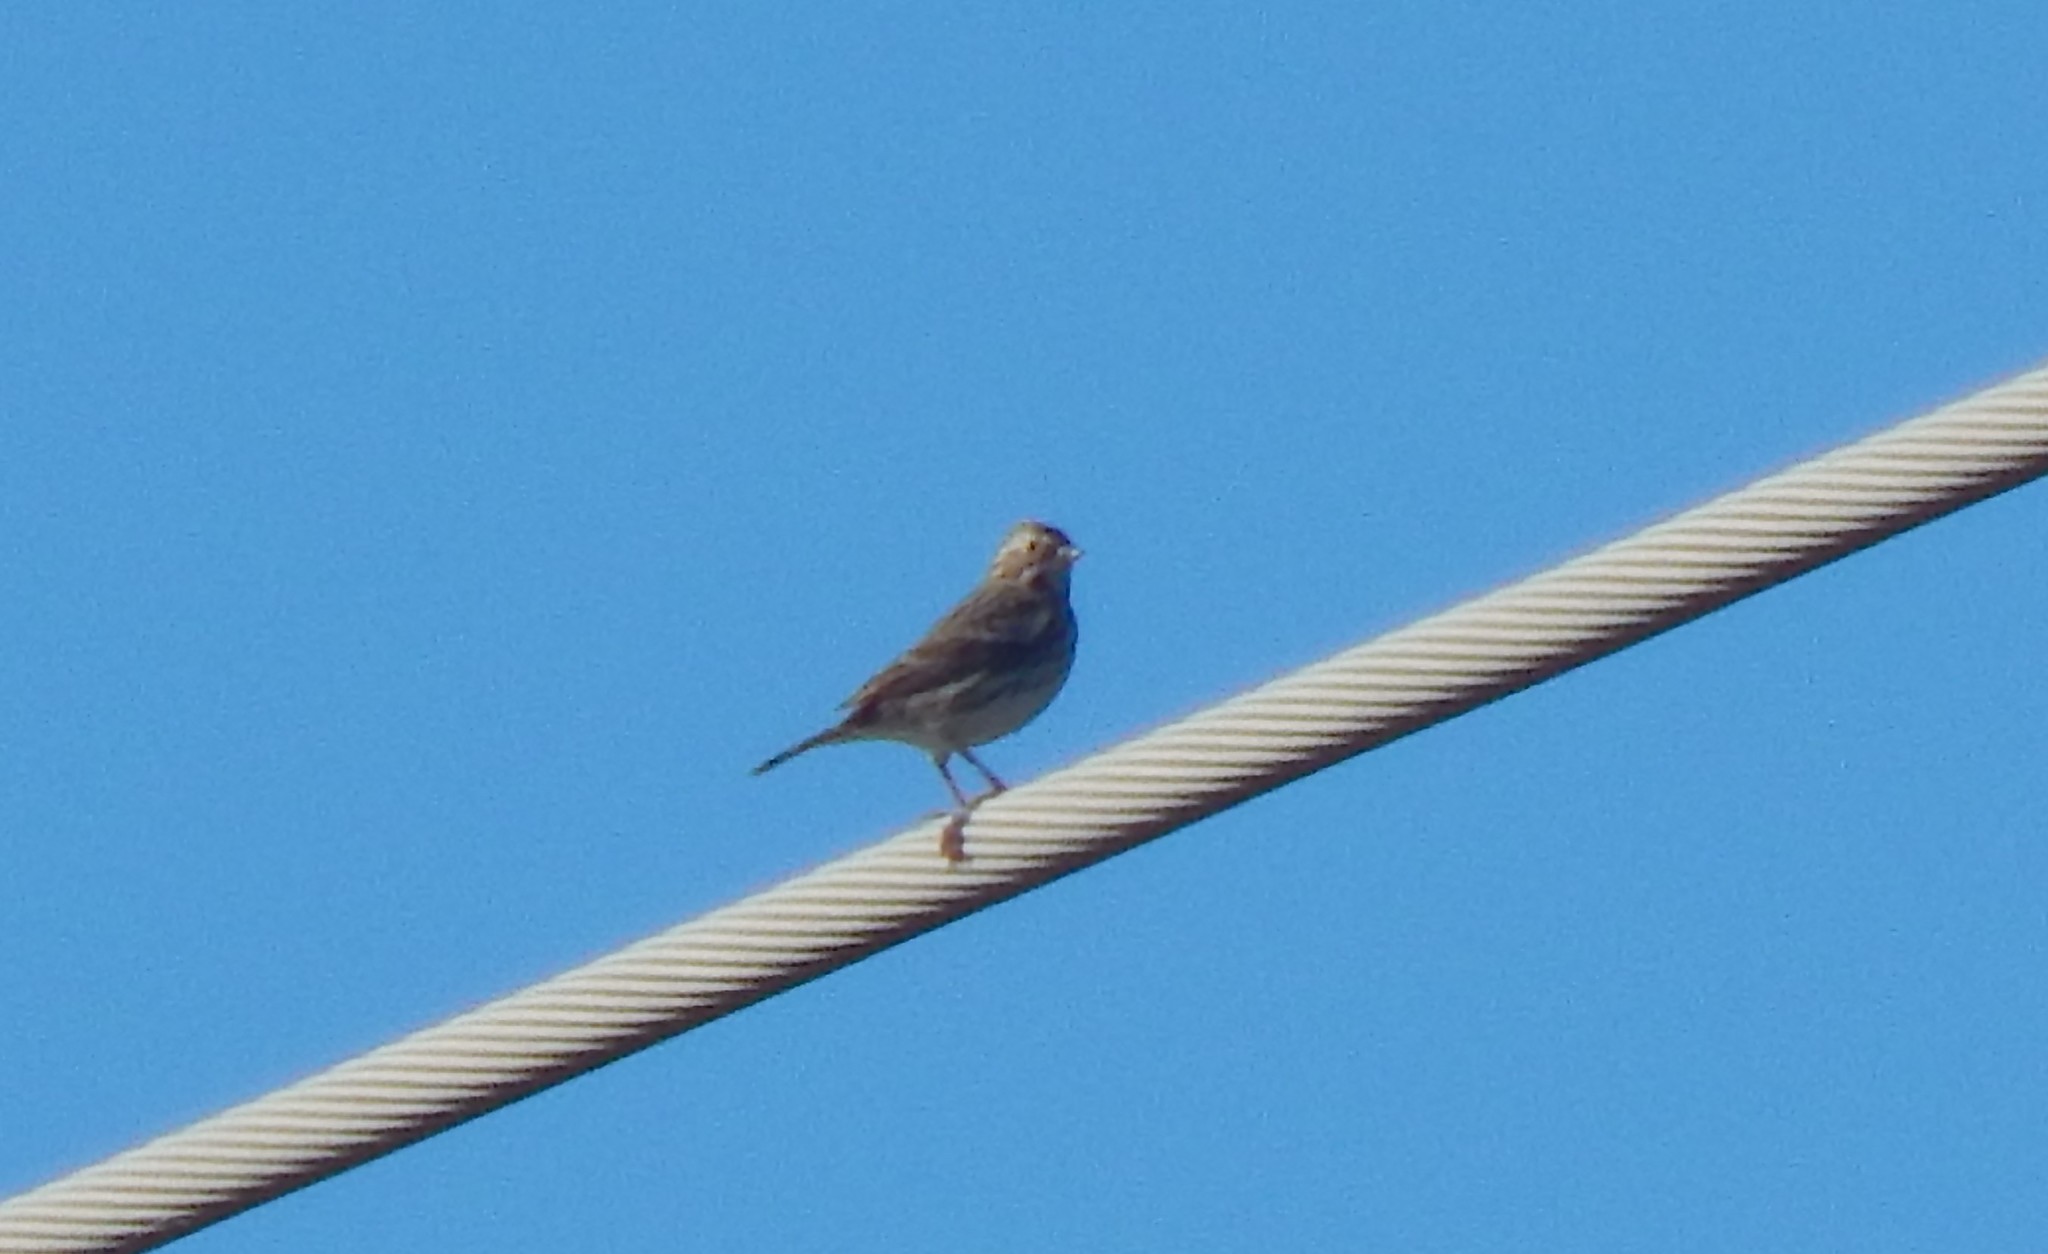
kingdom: Animalia
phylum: Chordata
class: Aves
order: Passeriformes
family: Passerellidae
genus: Passerculus
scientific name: Passerculus sandwichensis
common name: Savannah sparrow
